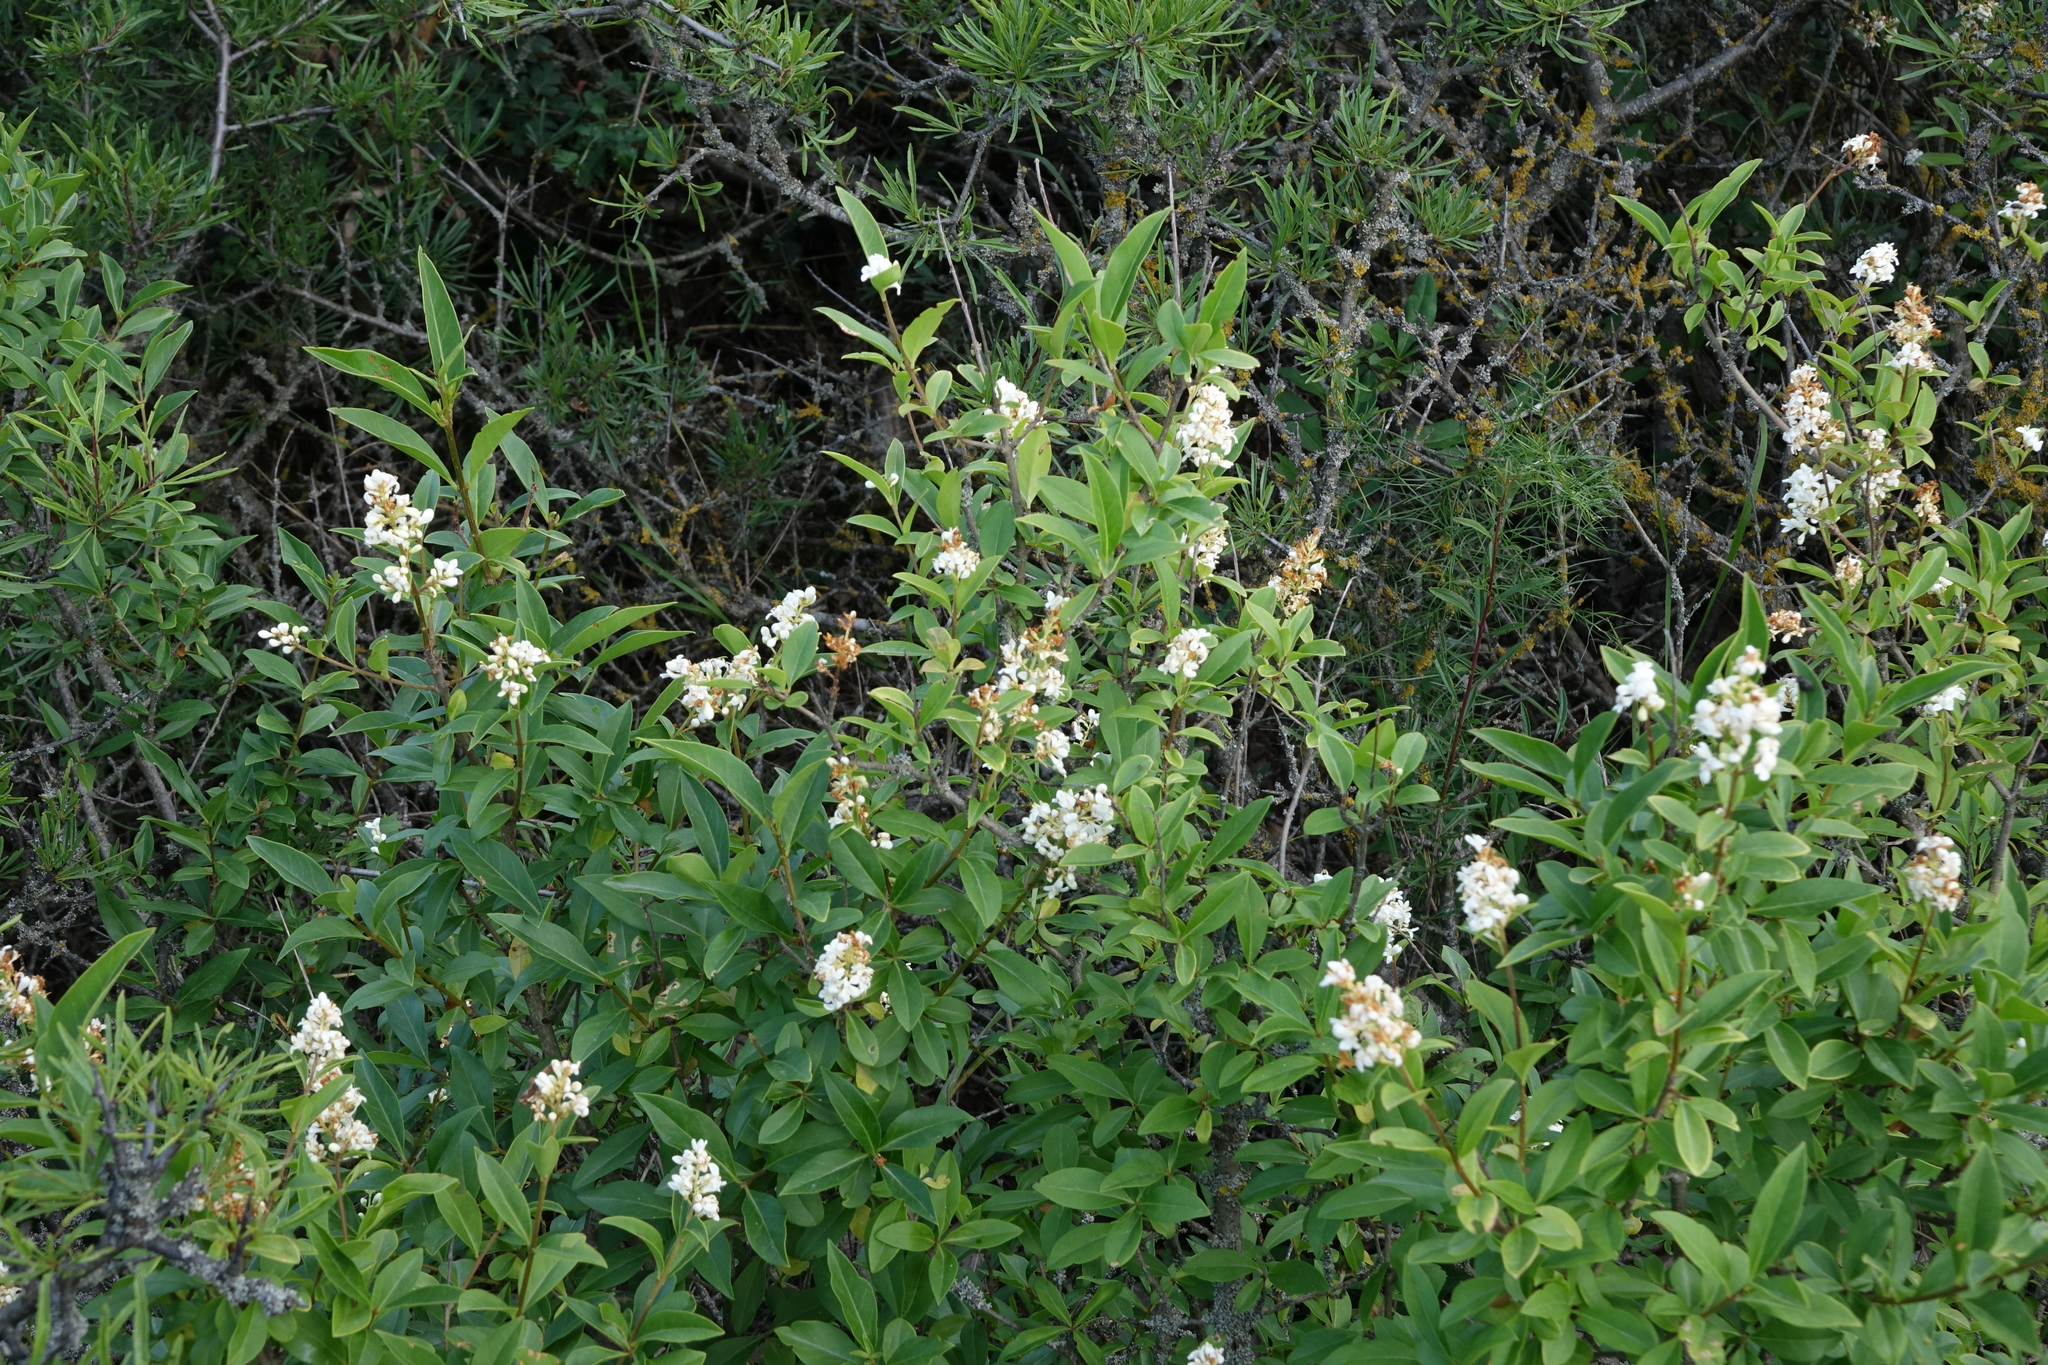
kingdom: Plantae
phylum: Tracheophyta
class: Magnoliopsida
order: Lamiales
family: Oleaceae
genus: Ligustrum
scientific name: Ligustrum vulgare
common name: Wild privet
